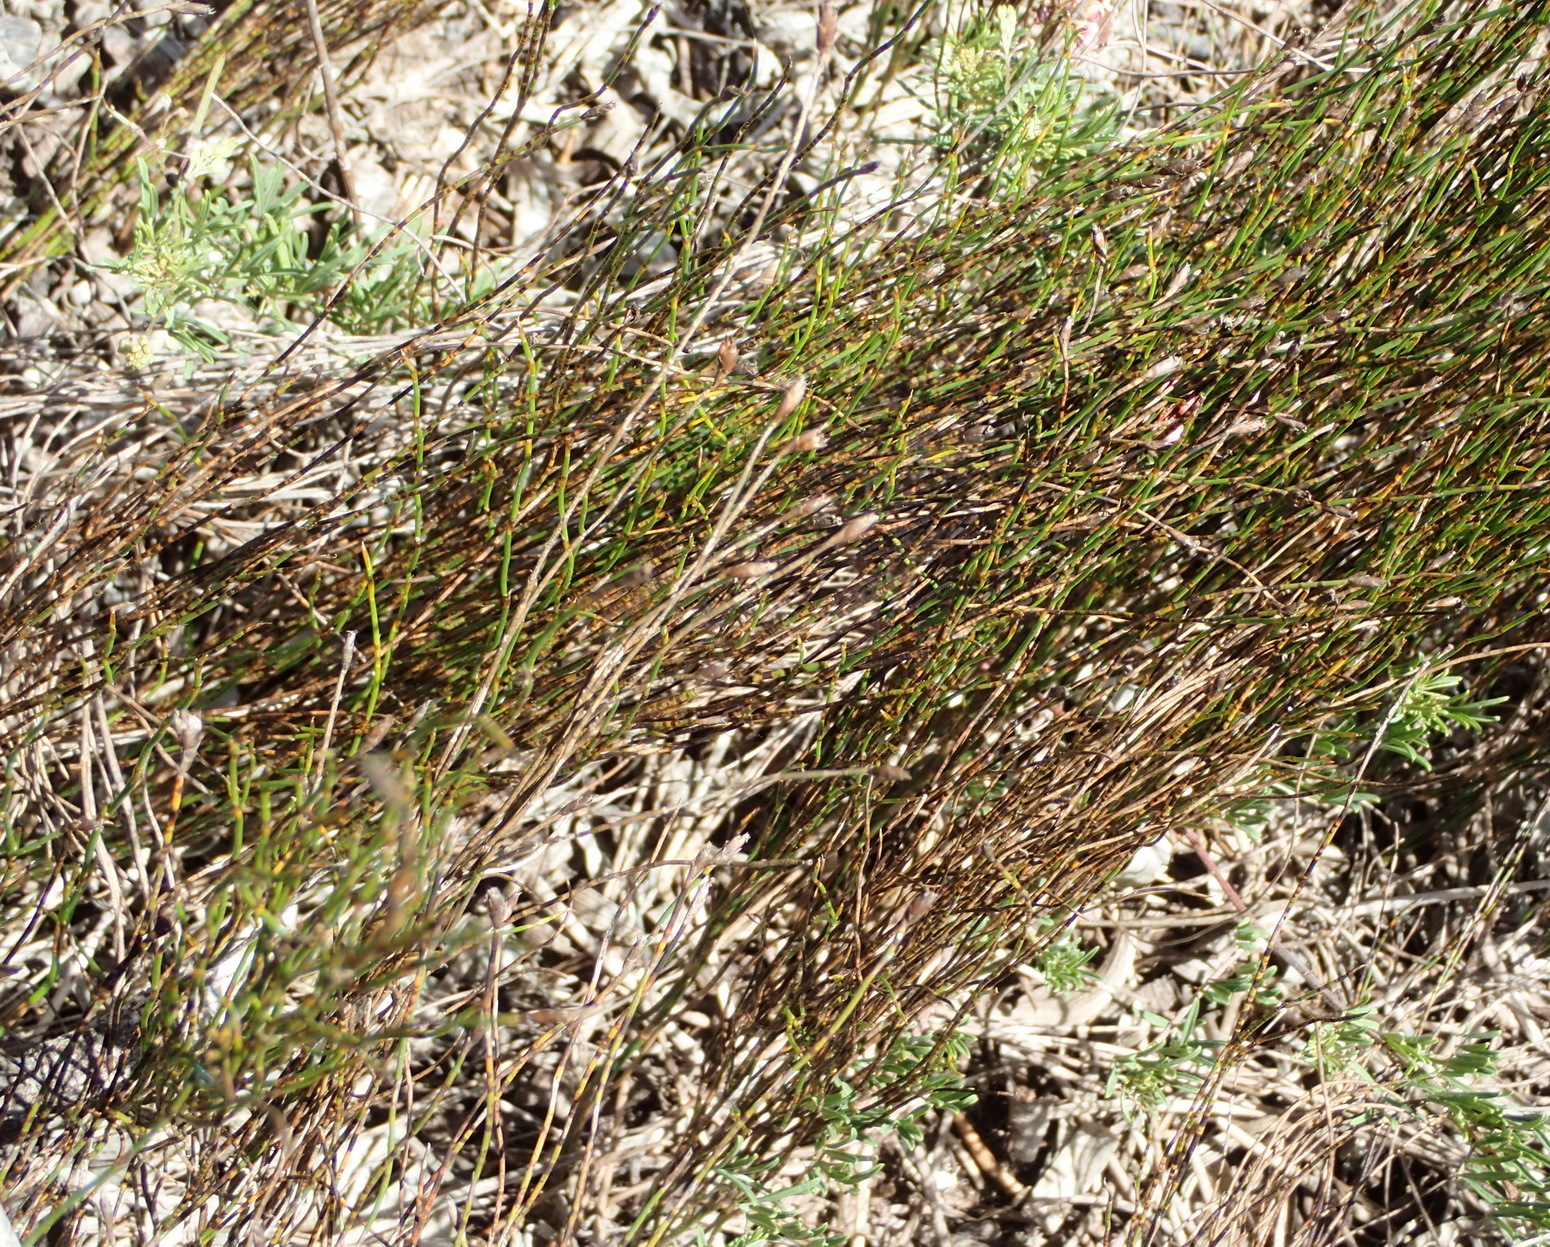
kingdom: Plantae
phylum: Tracheophyta
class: Magnoliopsida
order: Fabales
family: Fabaceae
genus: Indigofera
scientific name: Indigofera verrucosa
